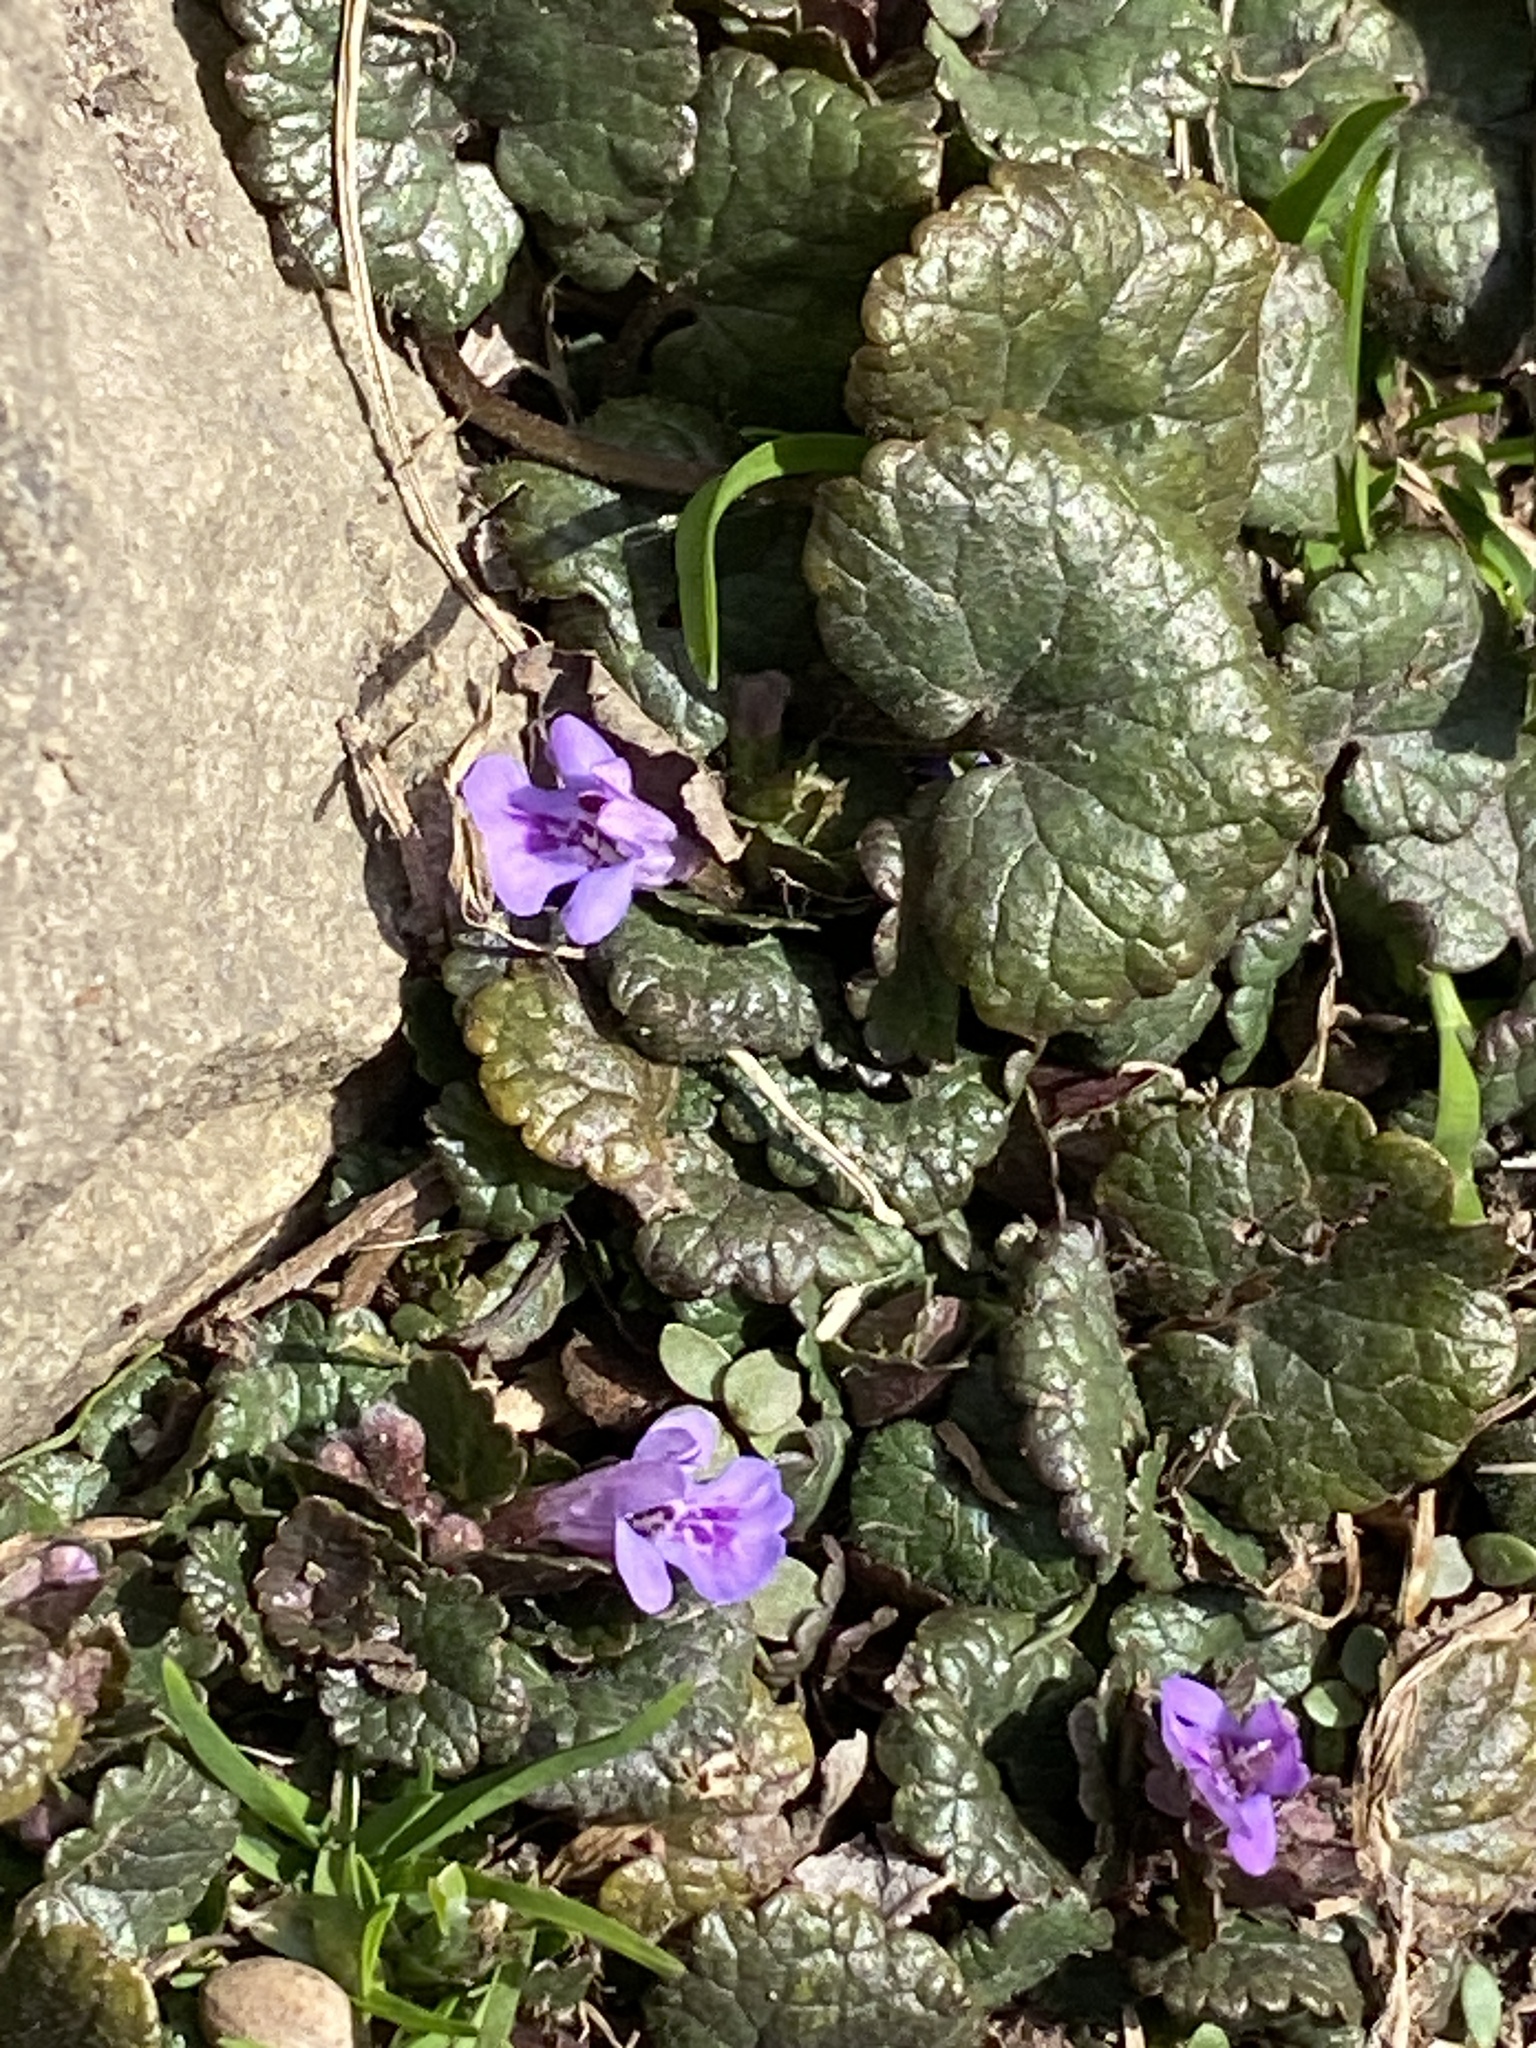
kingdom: Plantae
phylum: Tracheophyta
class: Magnoliopsida
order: Lamiales
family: Lamiaceae
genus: Glechoma
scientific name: Glechoma hederacea
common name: Ground ivy
